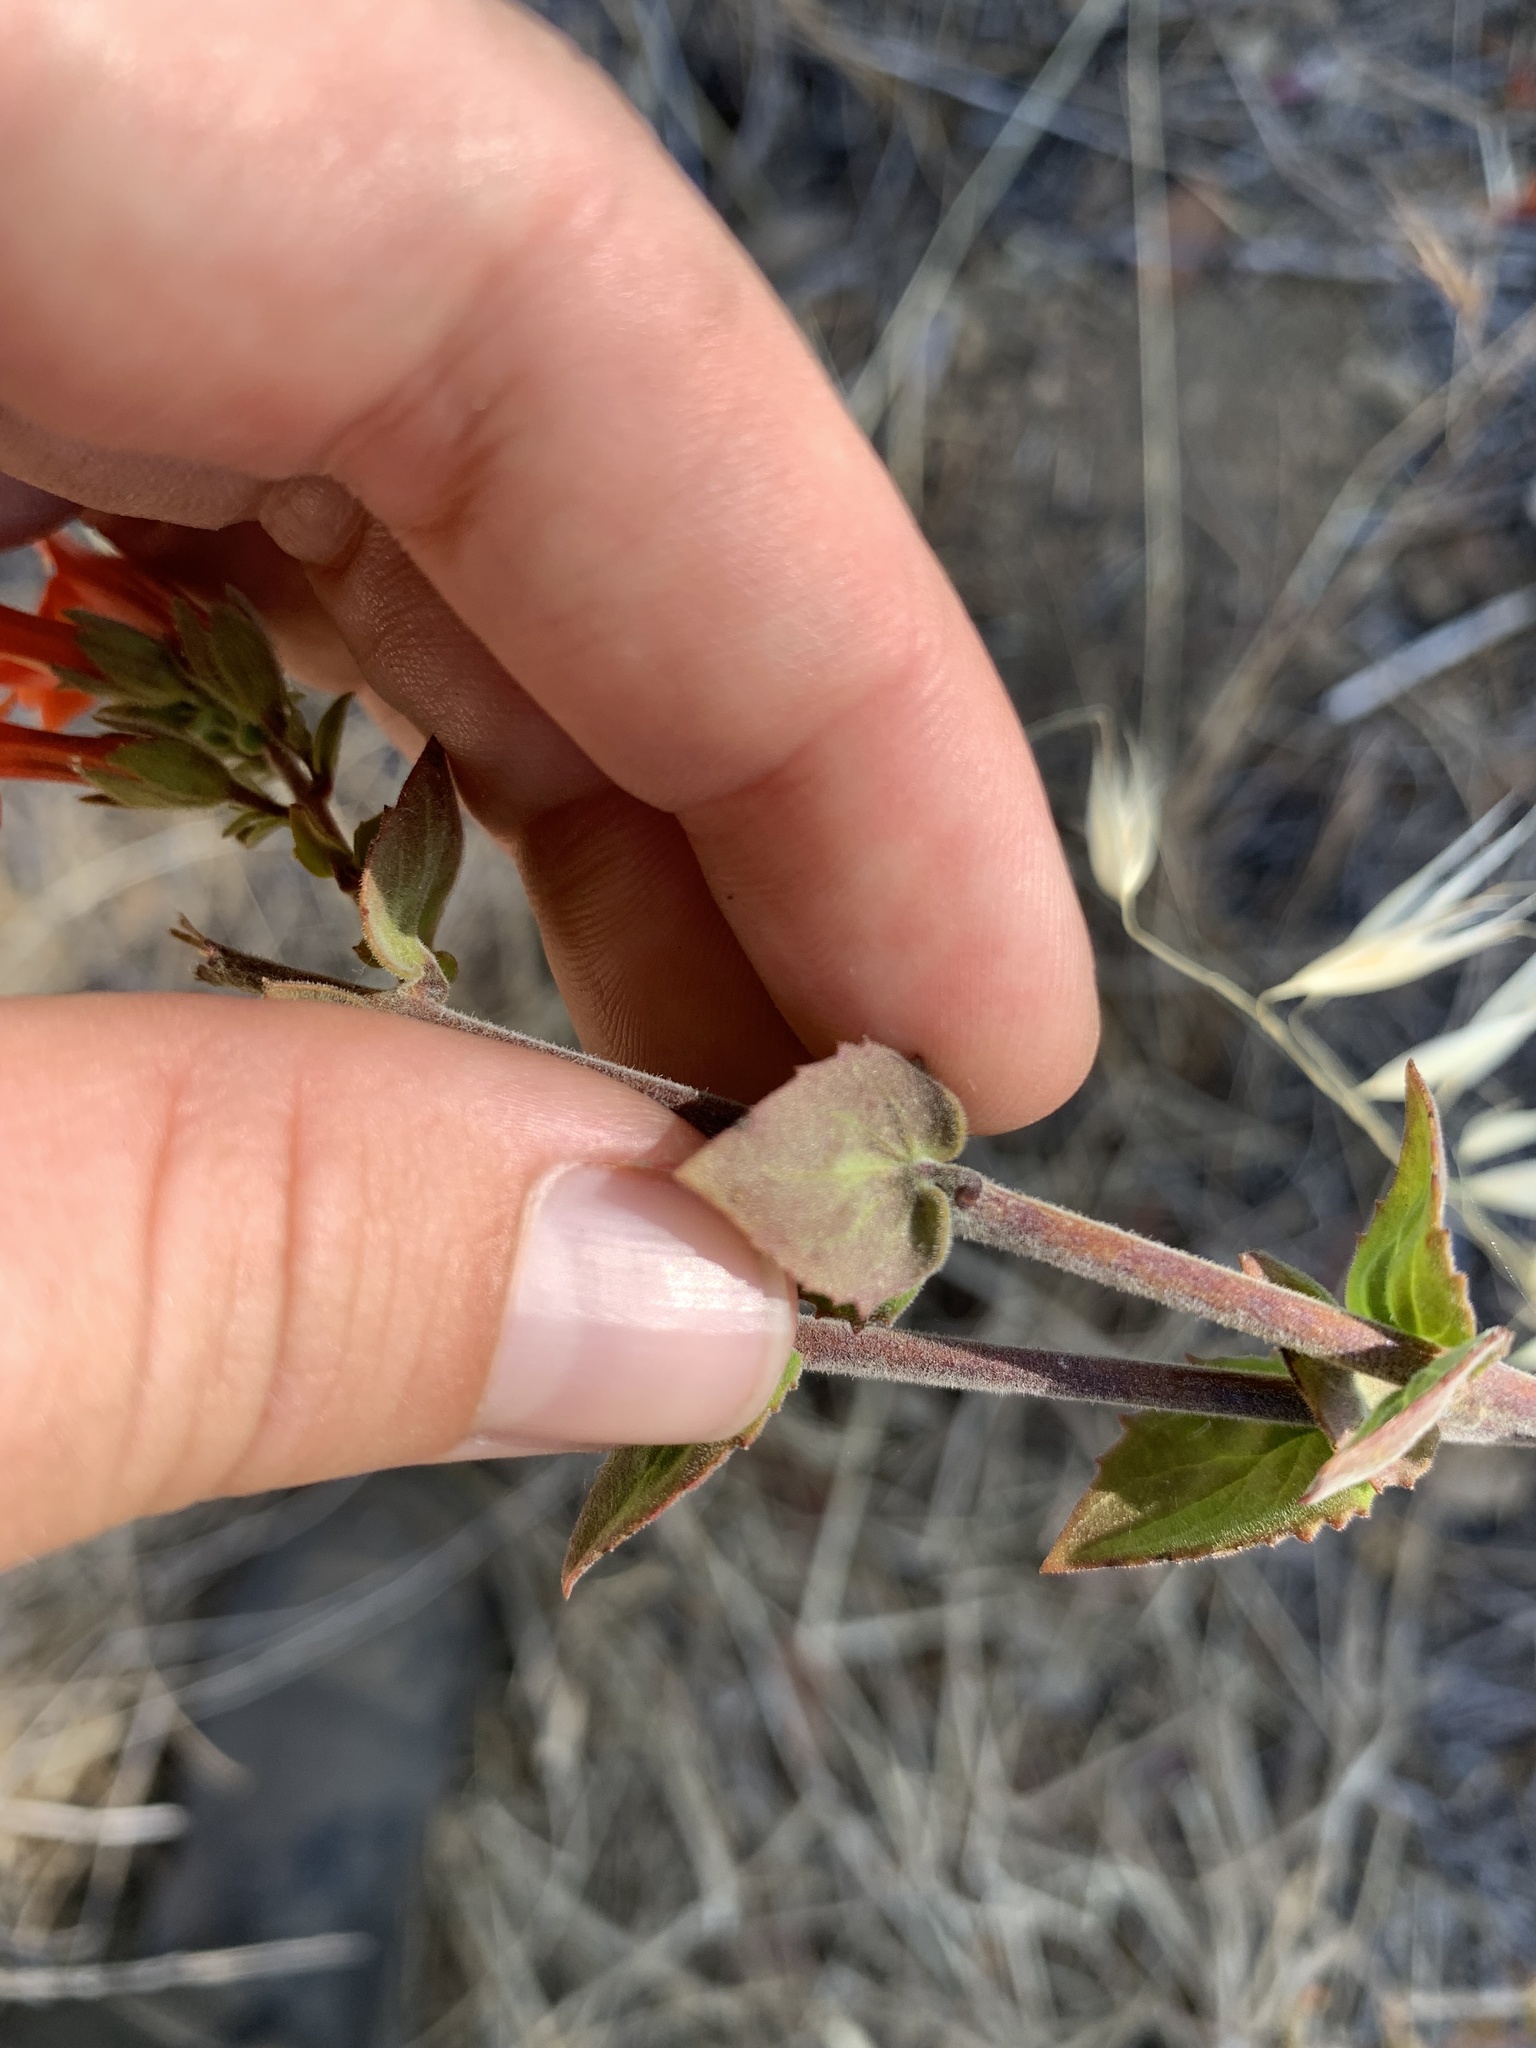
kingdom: Plantae
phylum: Tracheophyta
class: Magnoliopsida
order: Lamiales
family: Plantaginaceae
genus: Keckiella
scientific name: Keckiella cordifolia
